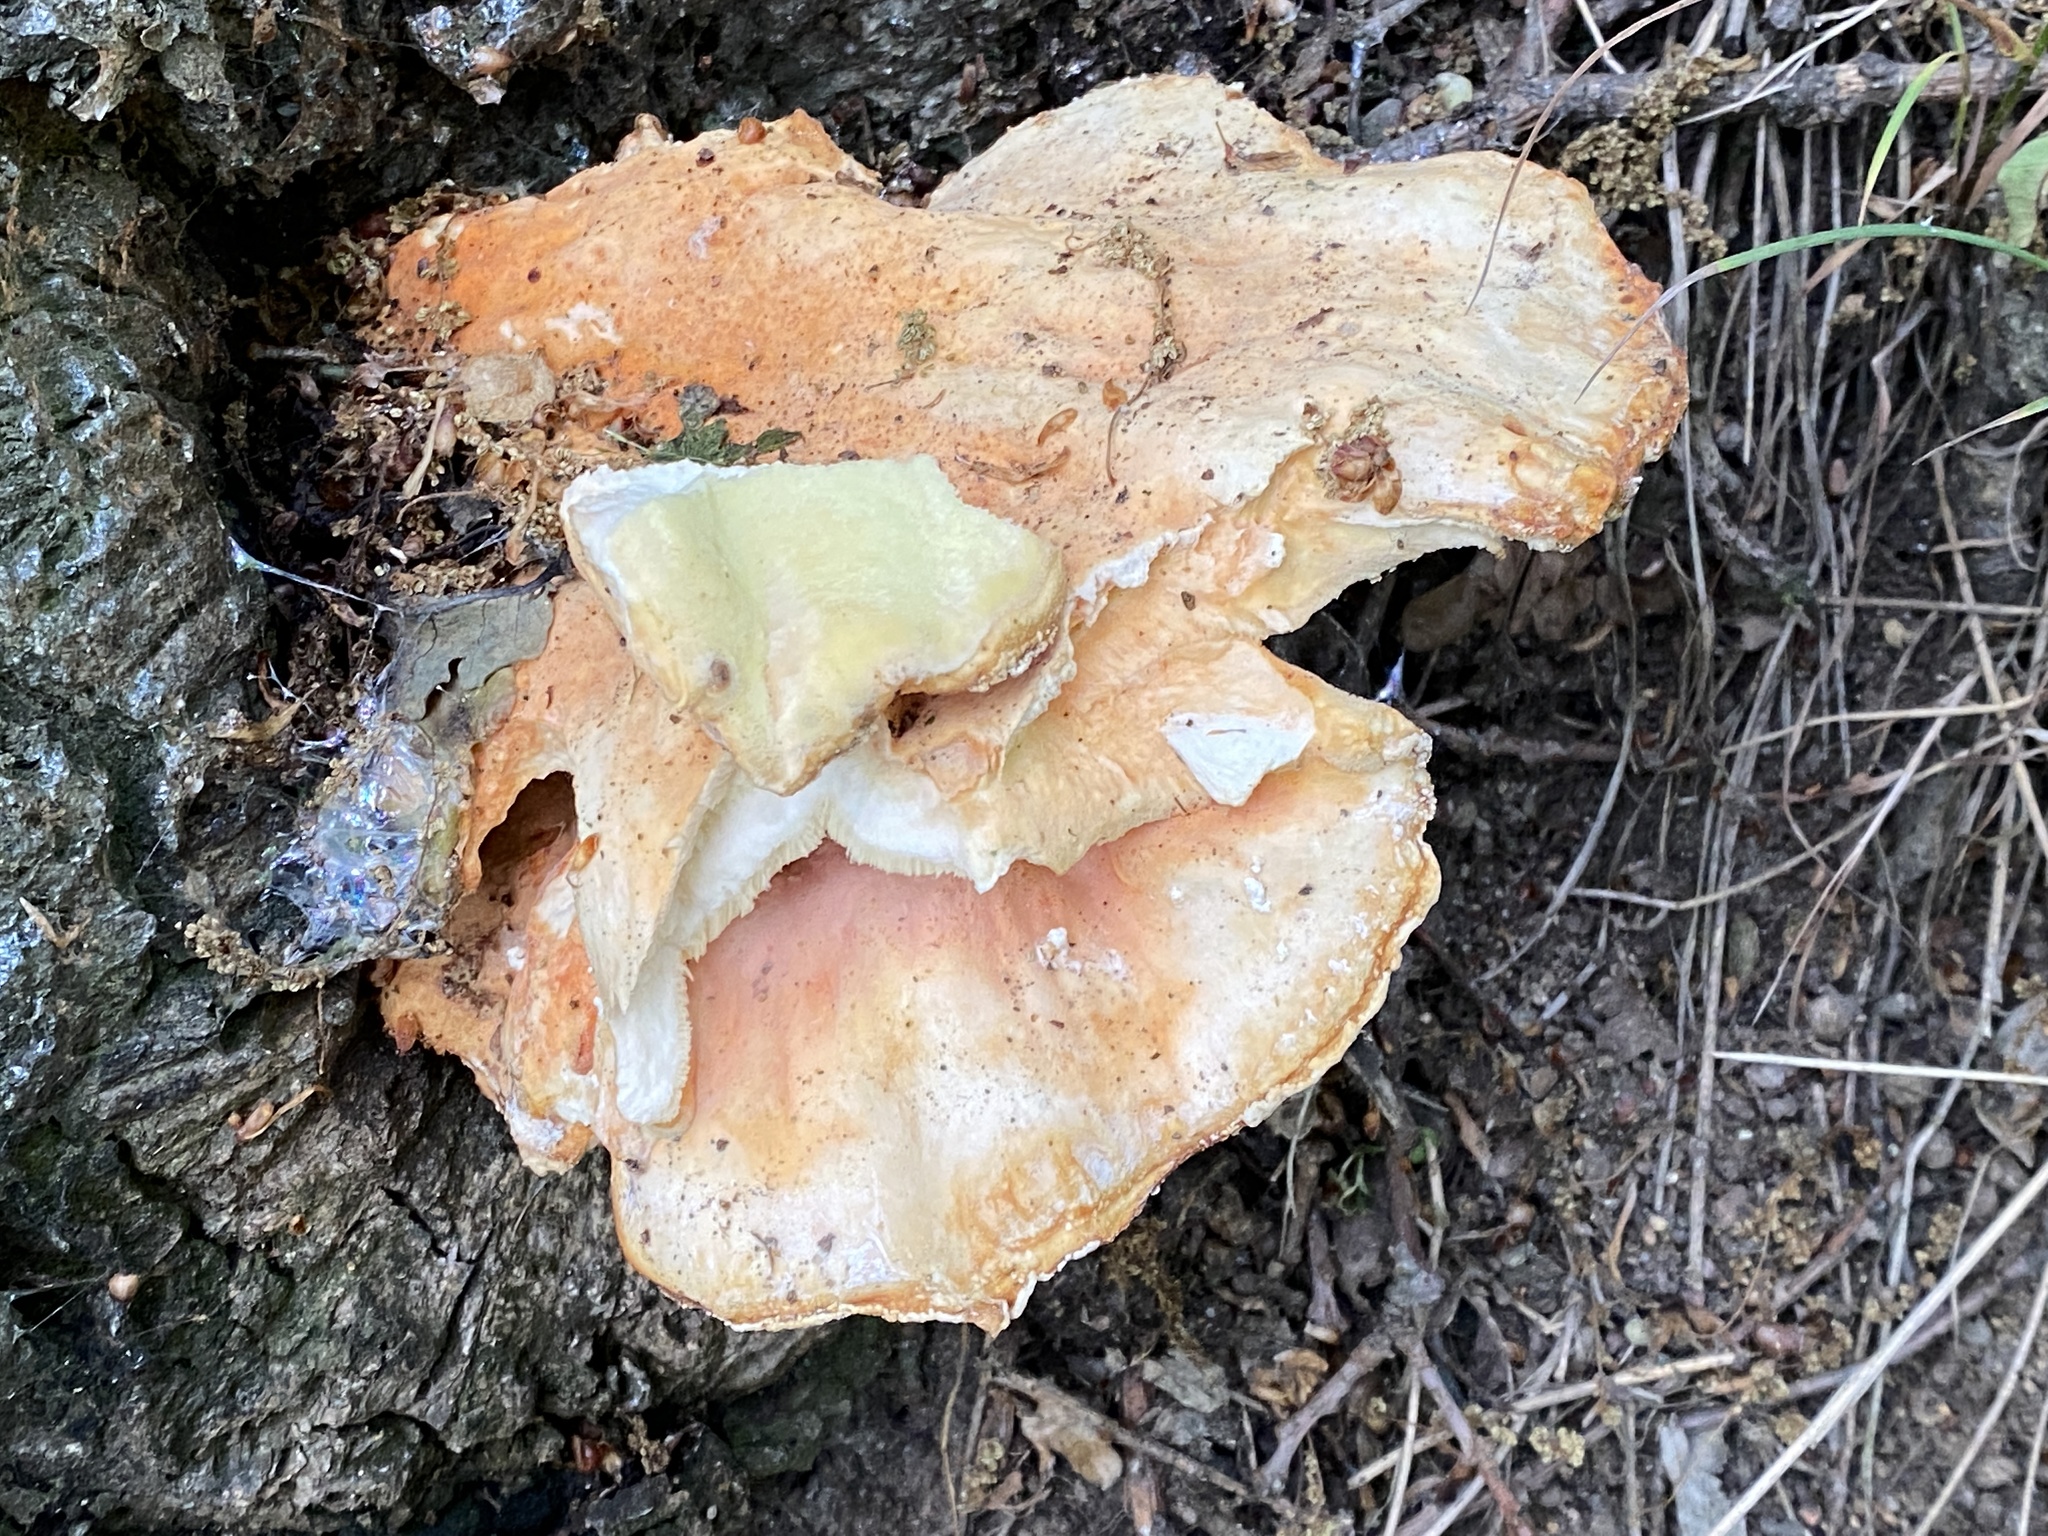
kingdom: Fungi
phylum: Basidiomycota
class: Agaricomycetes
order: Polyporales
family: Laetiporaceae
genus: Laetiporus
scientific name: Laetiporus sulphureus
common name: Chicken of the woods
